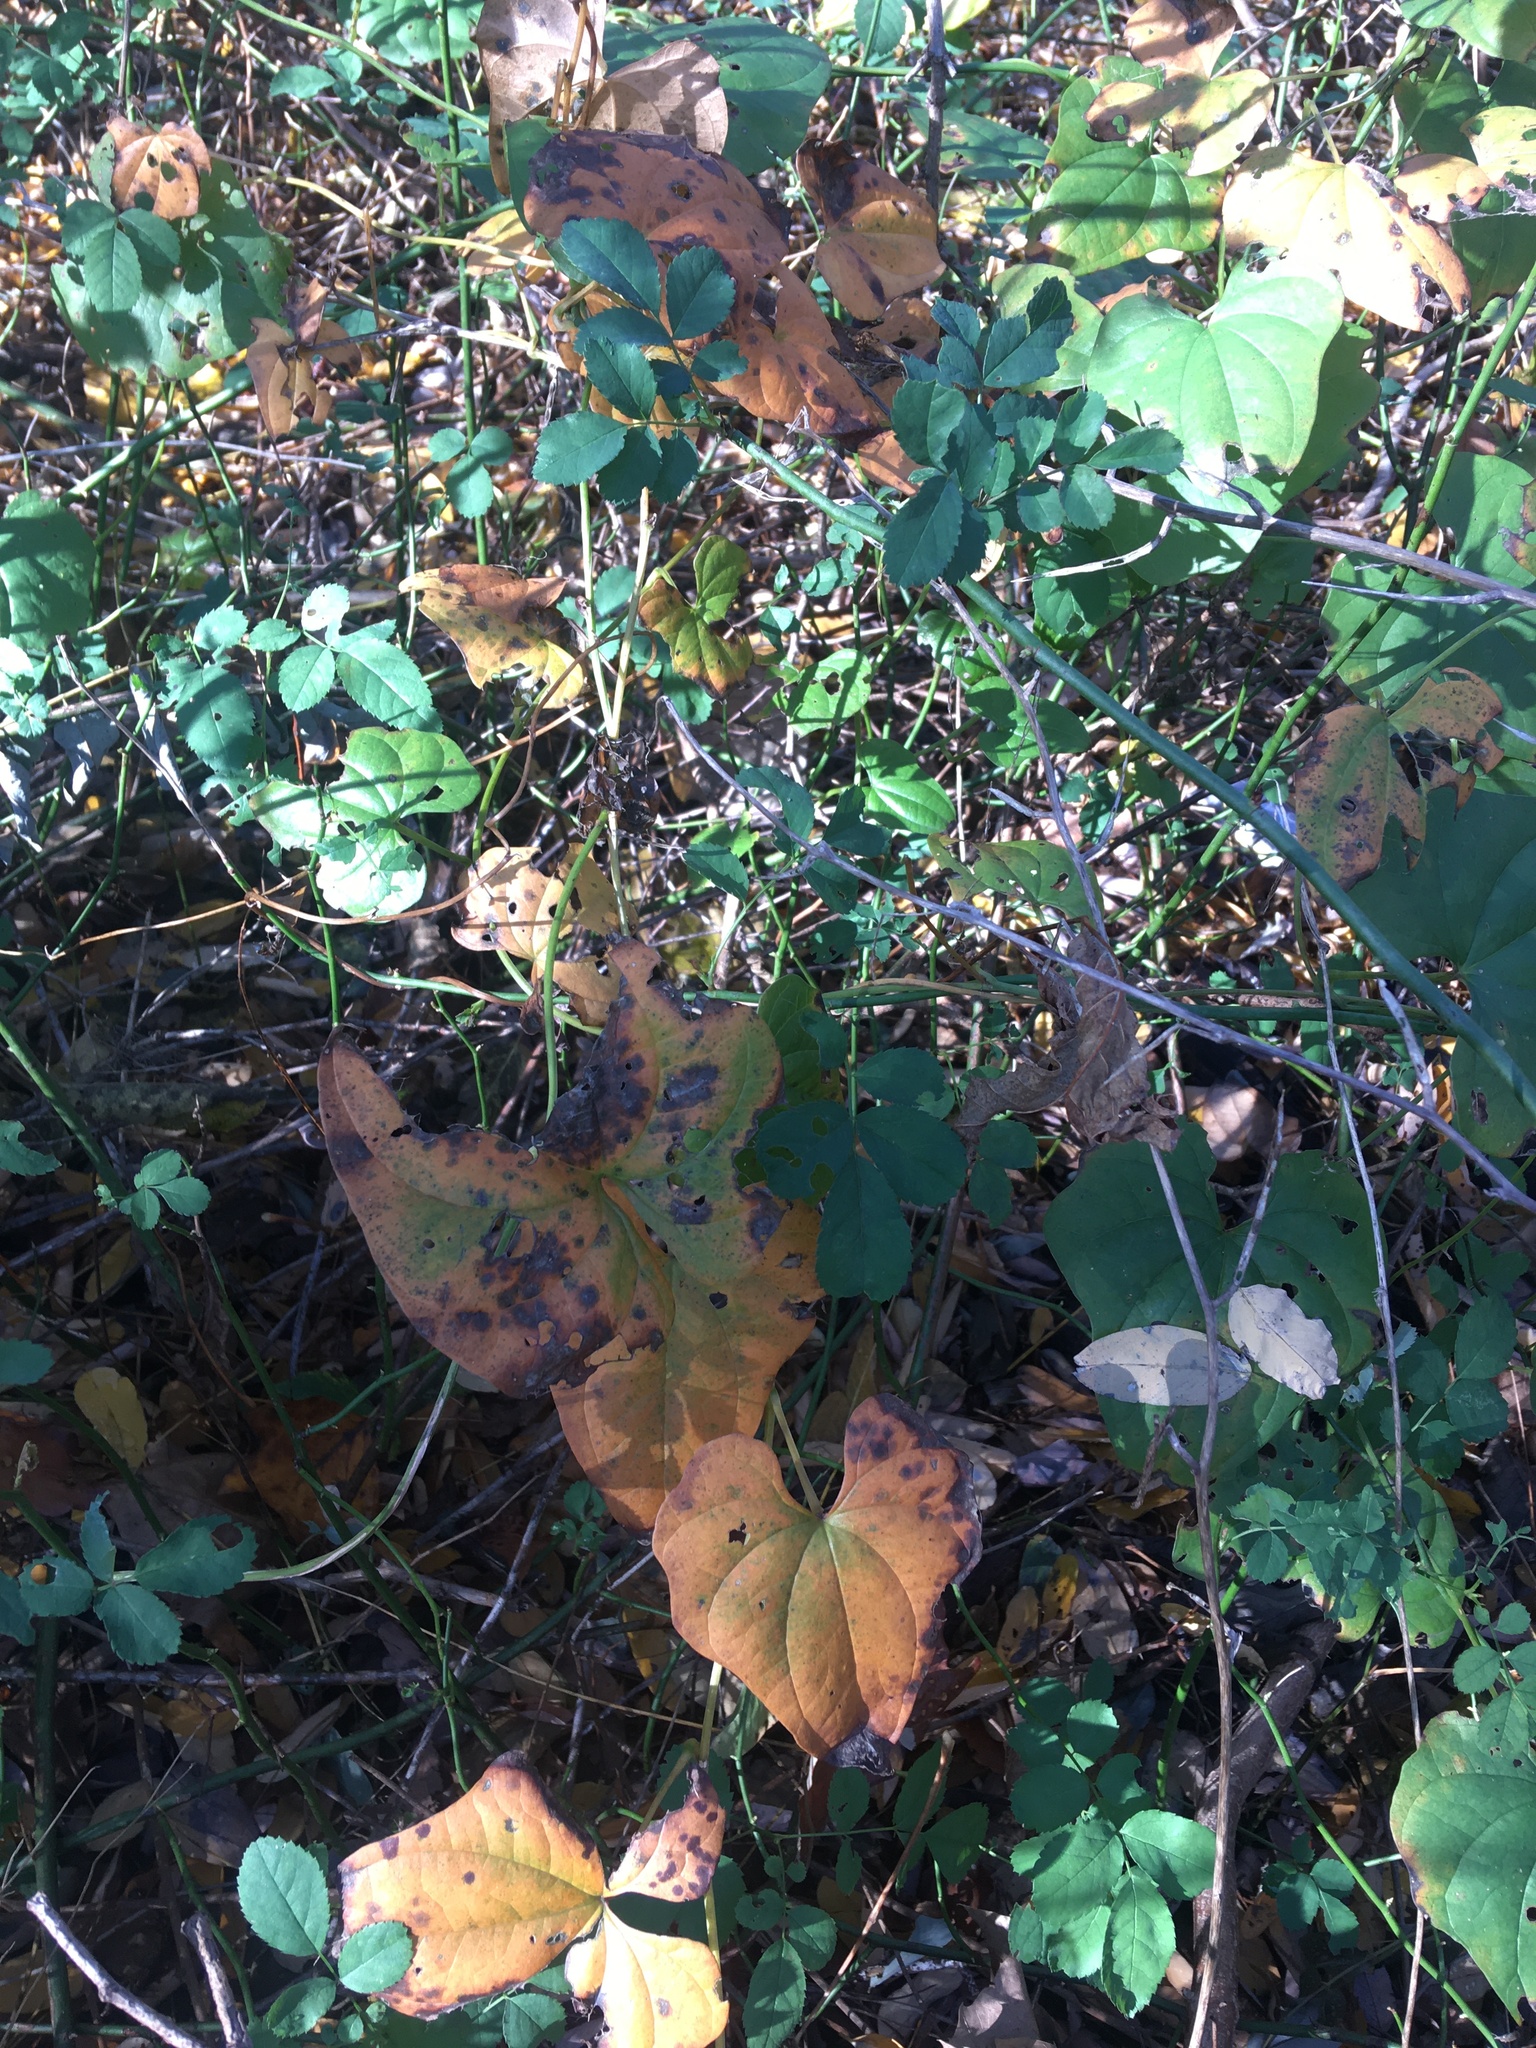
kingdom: Plantae
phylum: Tracheophyta
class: Liliopsida
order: Dioscoreales
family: Dioscoreaceae
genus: Dioscorea
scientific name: Dioscorea polystachya
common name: Chinese yam
